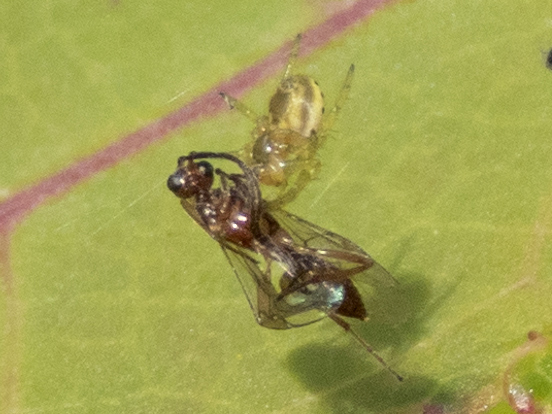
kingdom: Animalia
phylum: Arthropoda
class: Arachnida
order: Araneae
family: Araneidae
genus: Araniella
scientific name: Araniella displicata
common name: Sixspotted orb weaver
